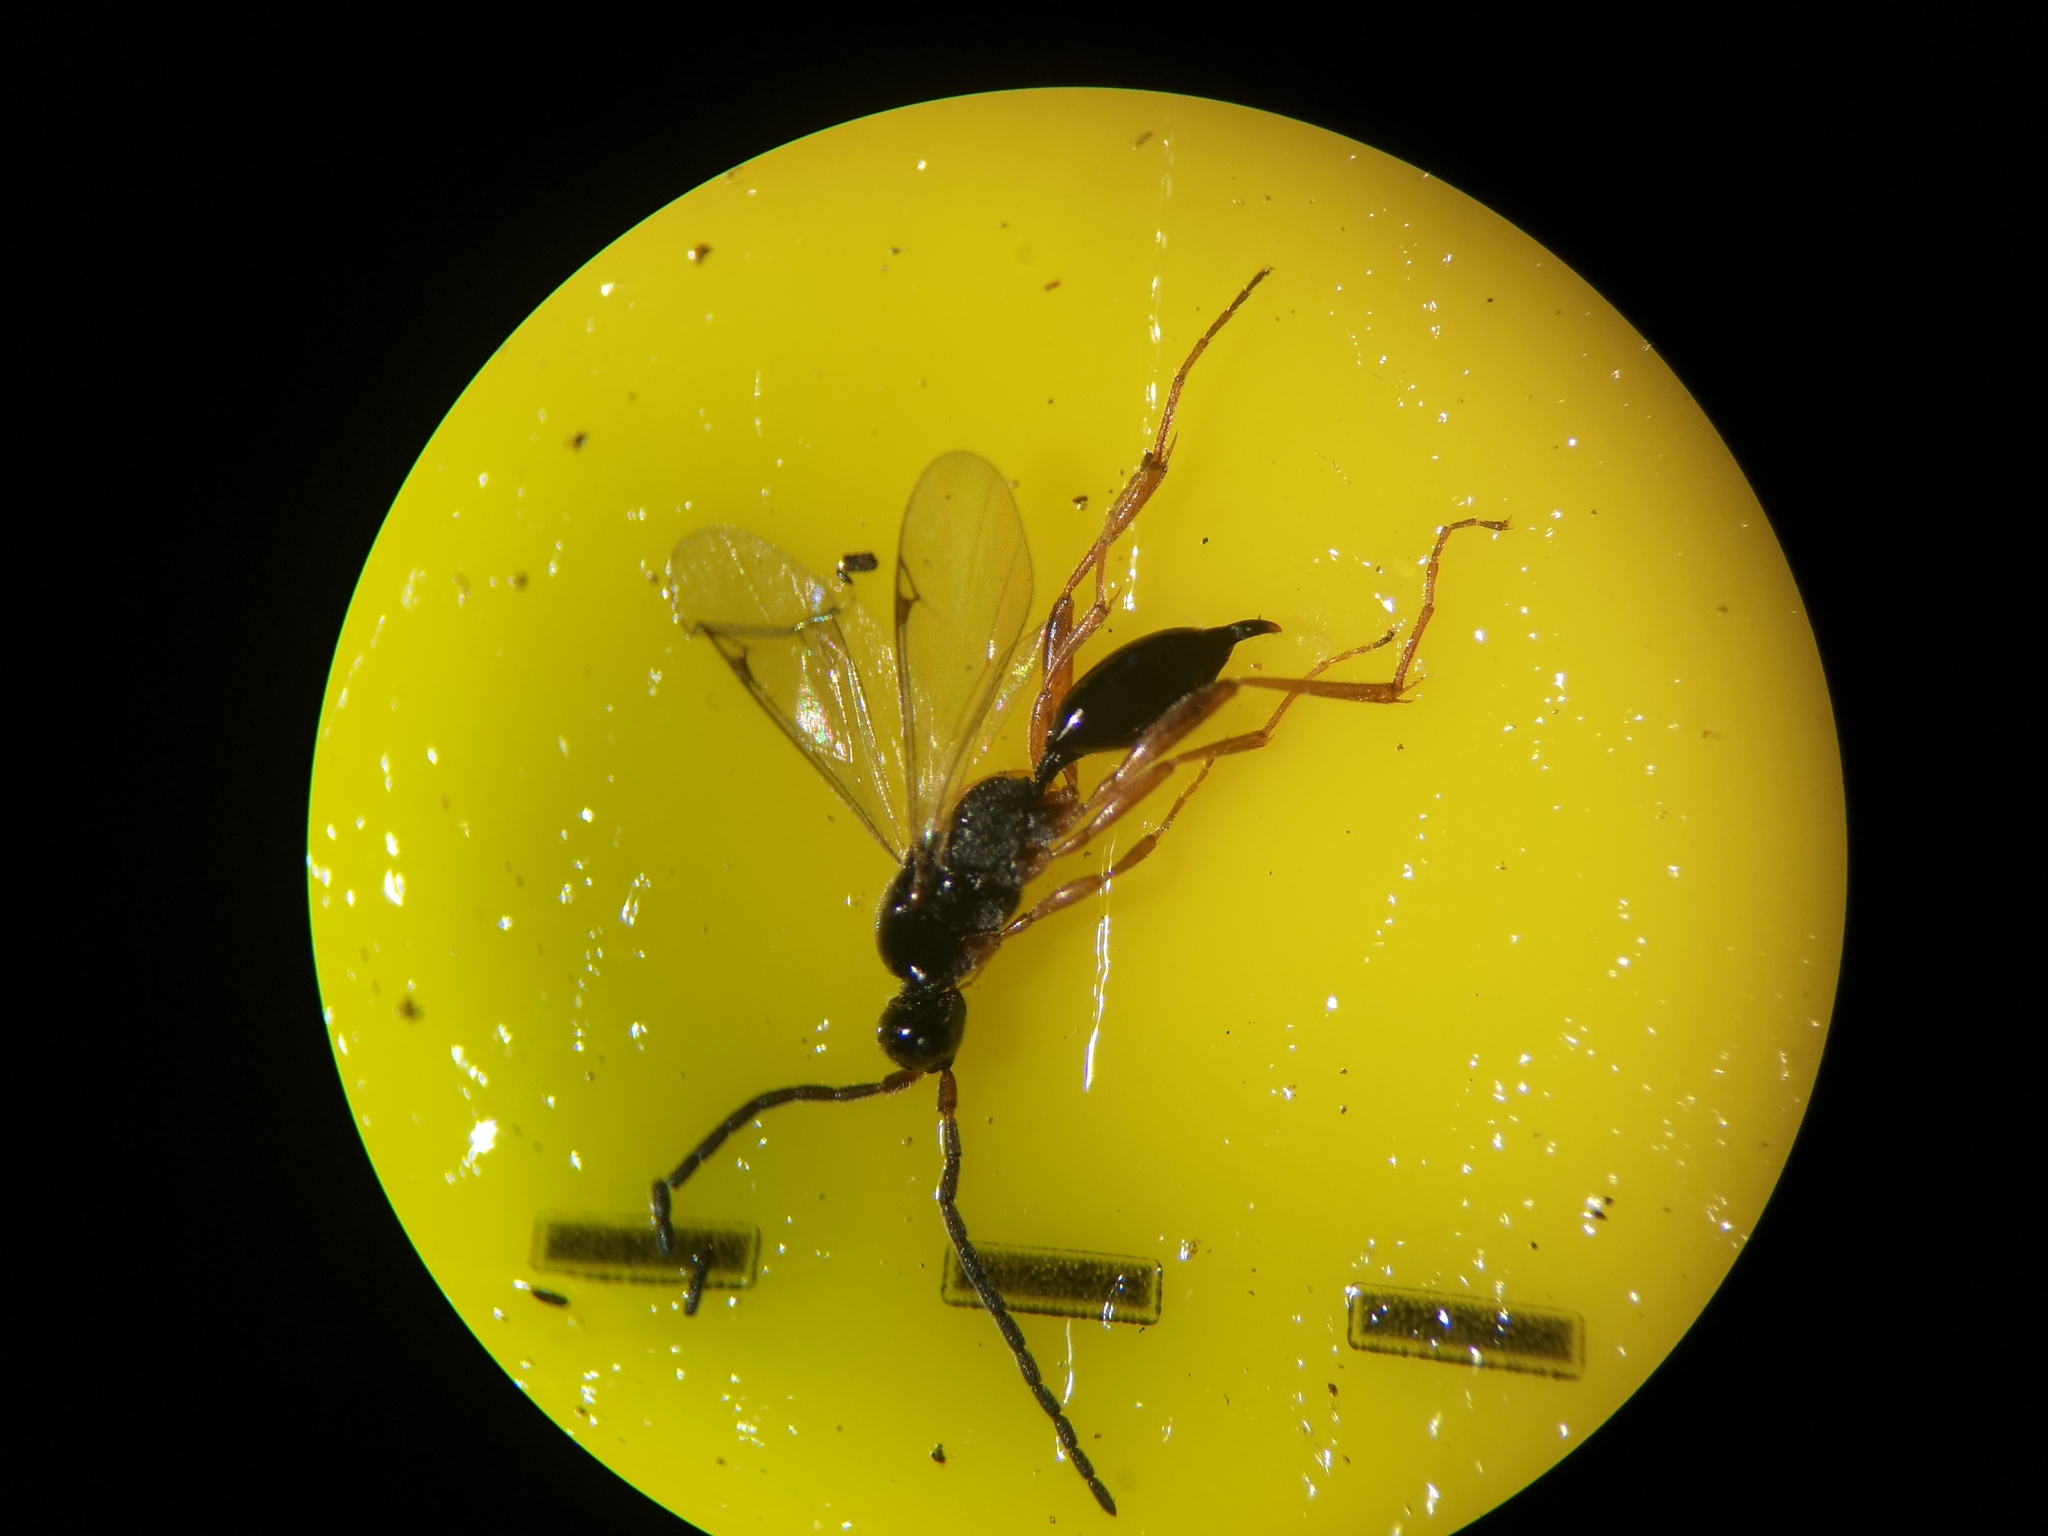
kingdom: Animalia
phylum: Arthropoda
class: Insecta
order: Hymenoptera
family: Proctotrupidae
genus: Phaneroserphus
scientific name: Phaneroserphus calcar
